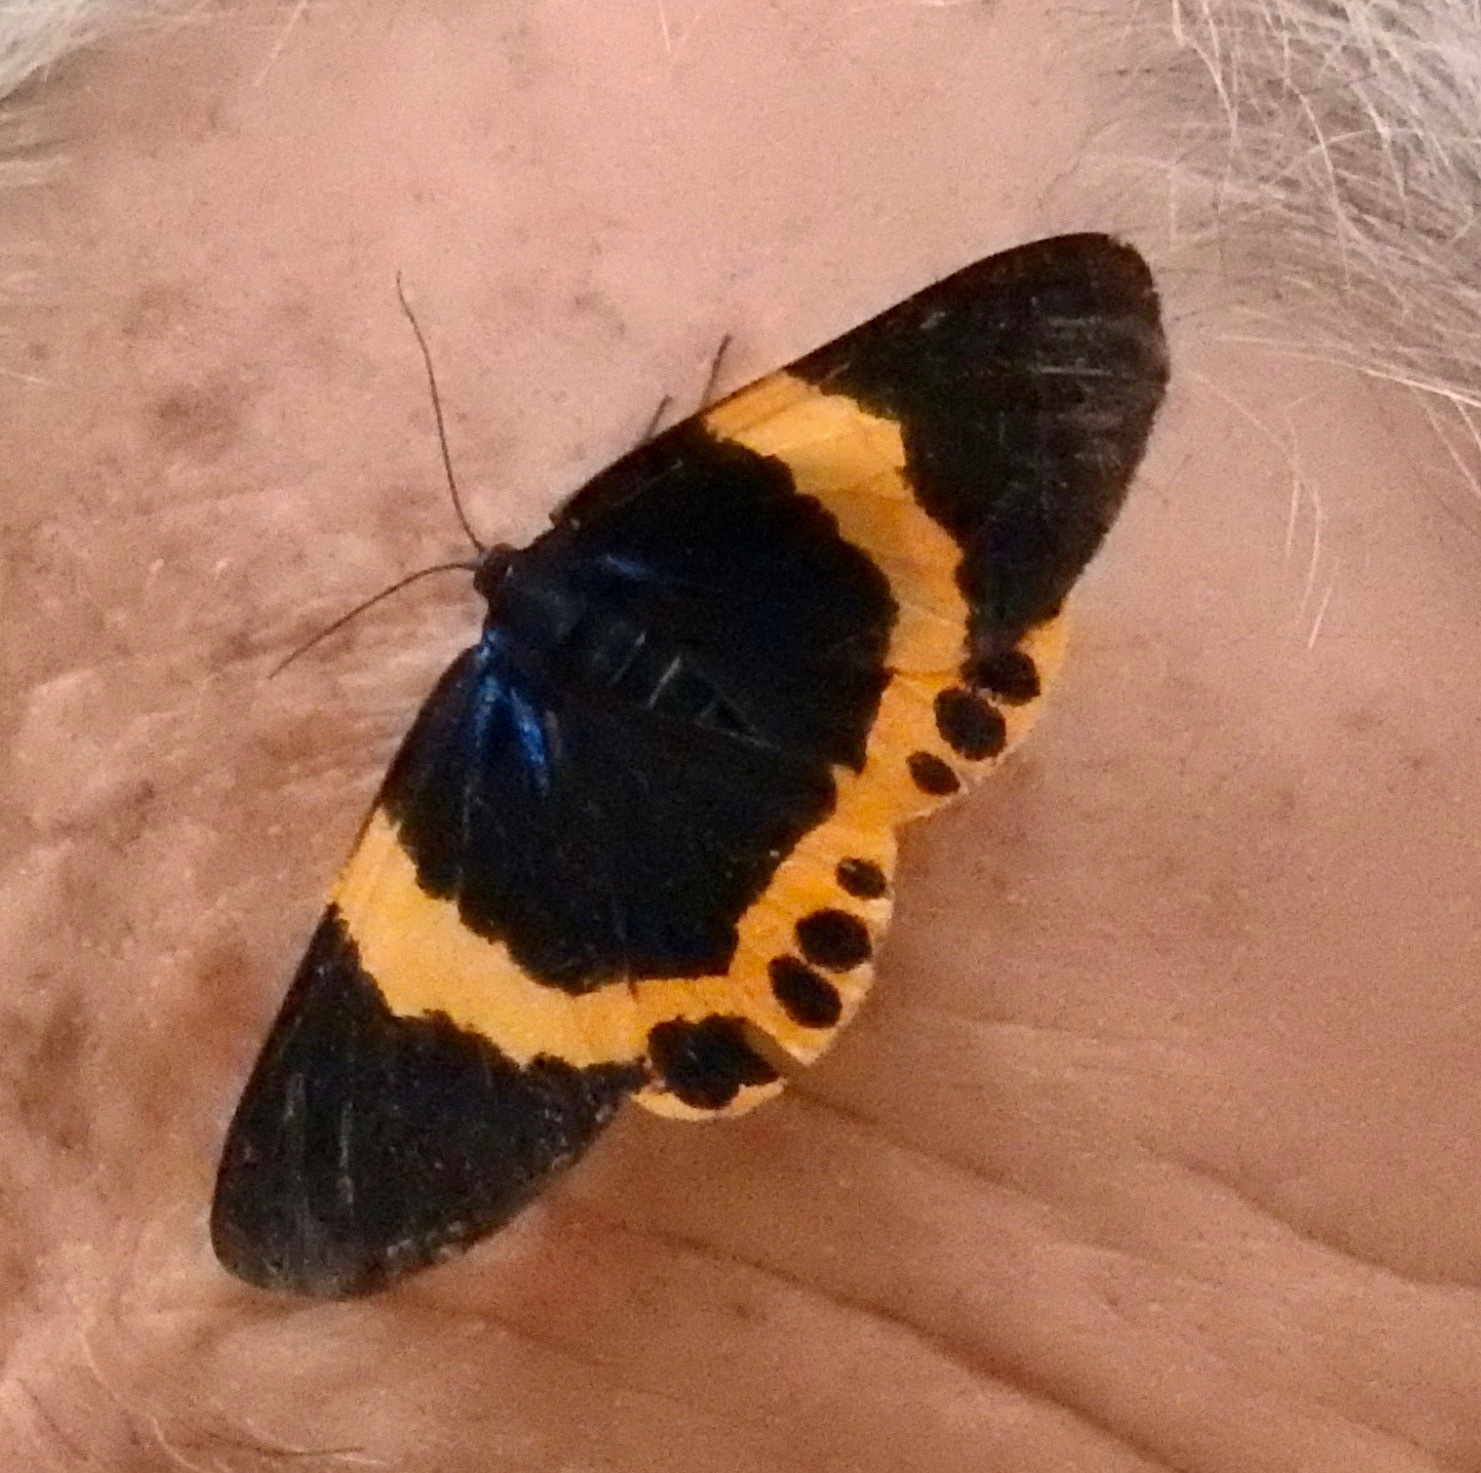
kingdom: Animalia
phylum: Arthropoda
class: Insecta
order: Lepidoptera
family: Geometridae
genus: Milionia
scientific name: Milionia basalis
